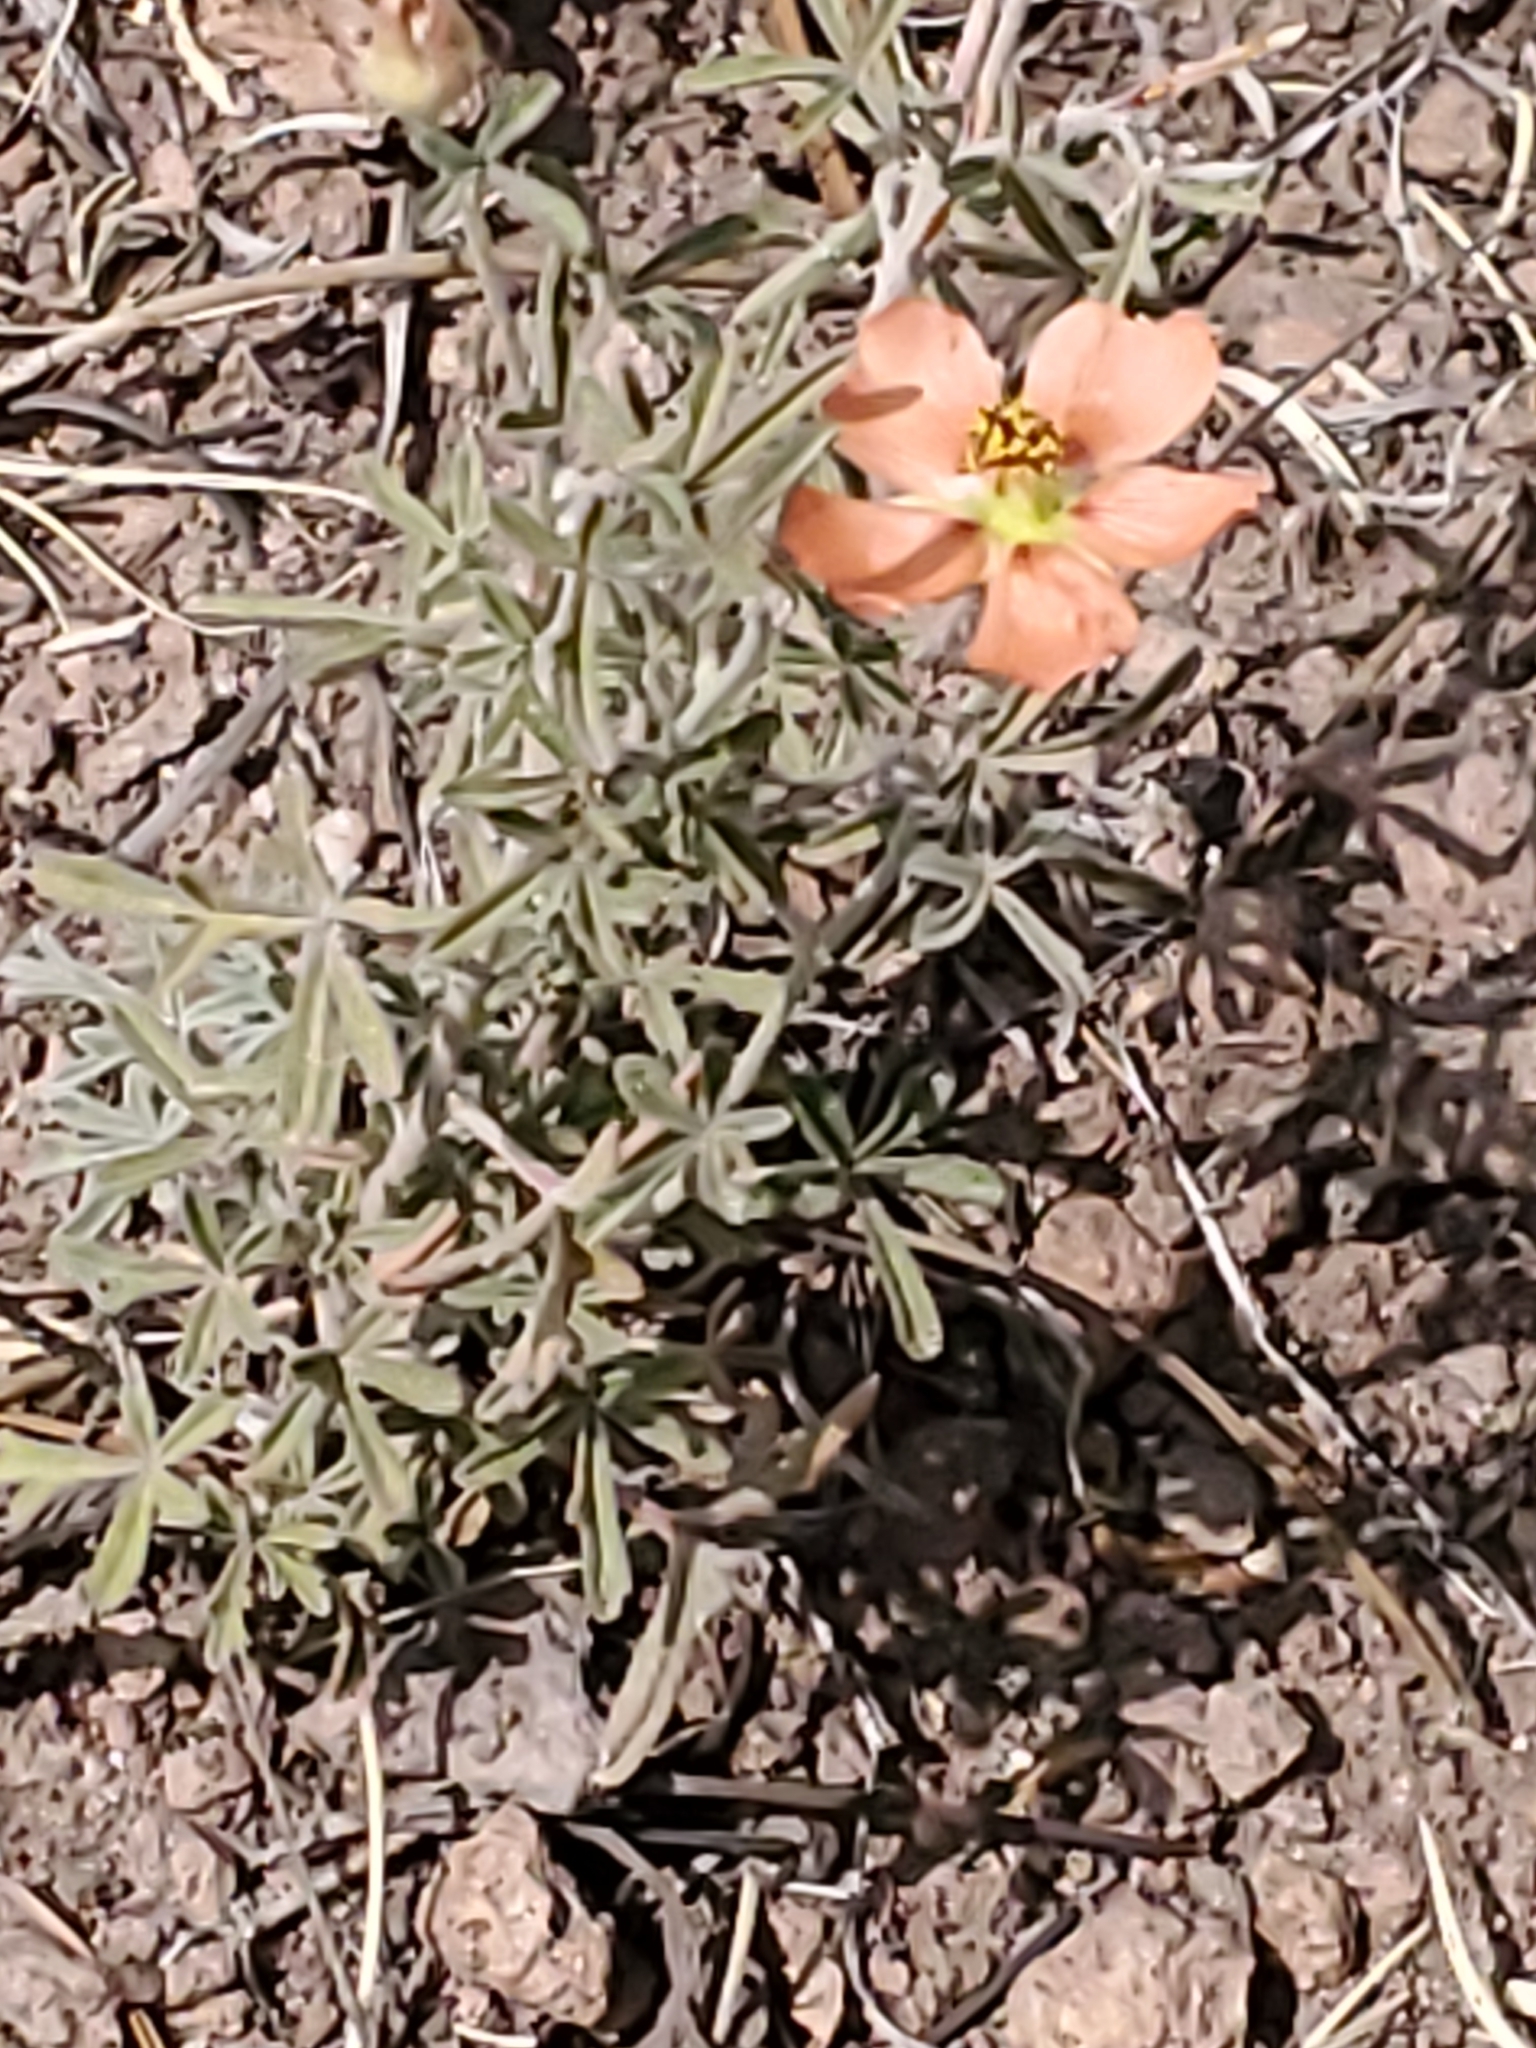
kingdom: Plantae
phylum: Tracheophyta
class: Magnoliopsida
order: Malvales
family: Malvaceae
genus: Sphaeralcea
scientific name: Sphaeralcea digitata
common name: Juniper-gobe-mallow
